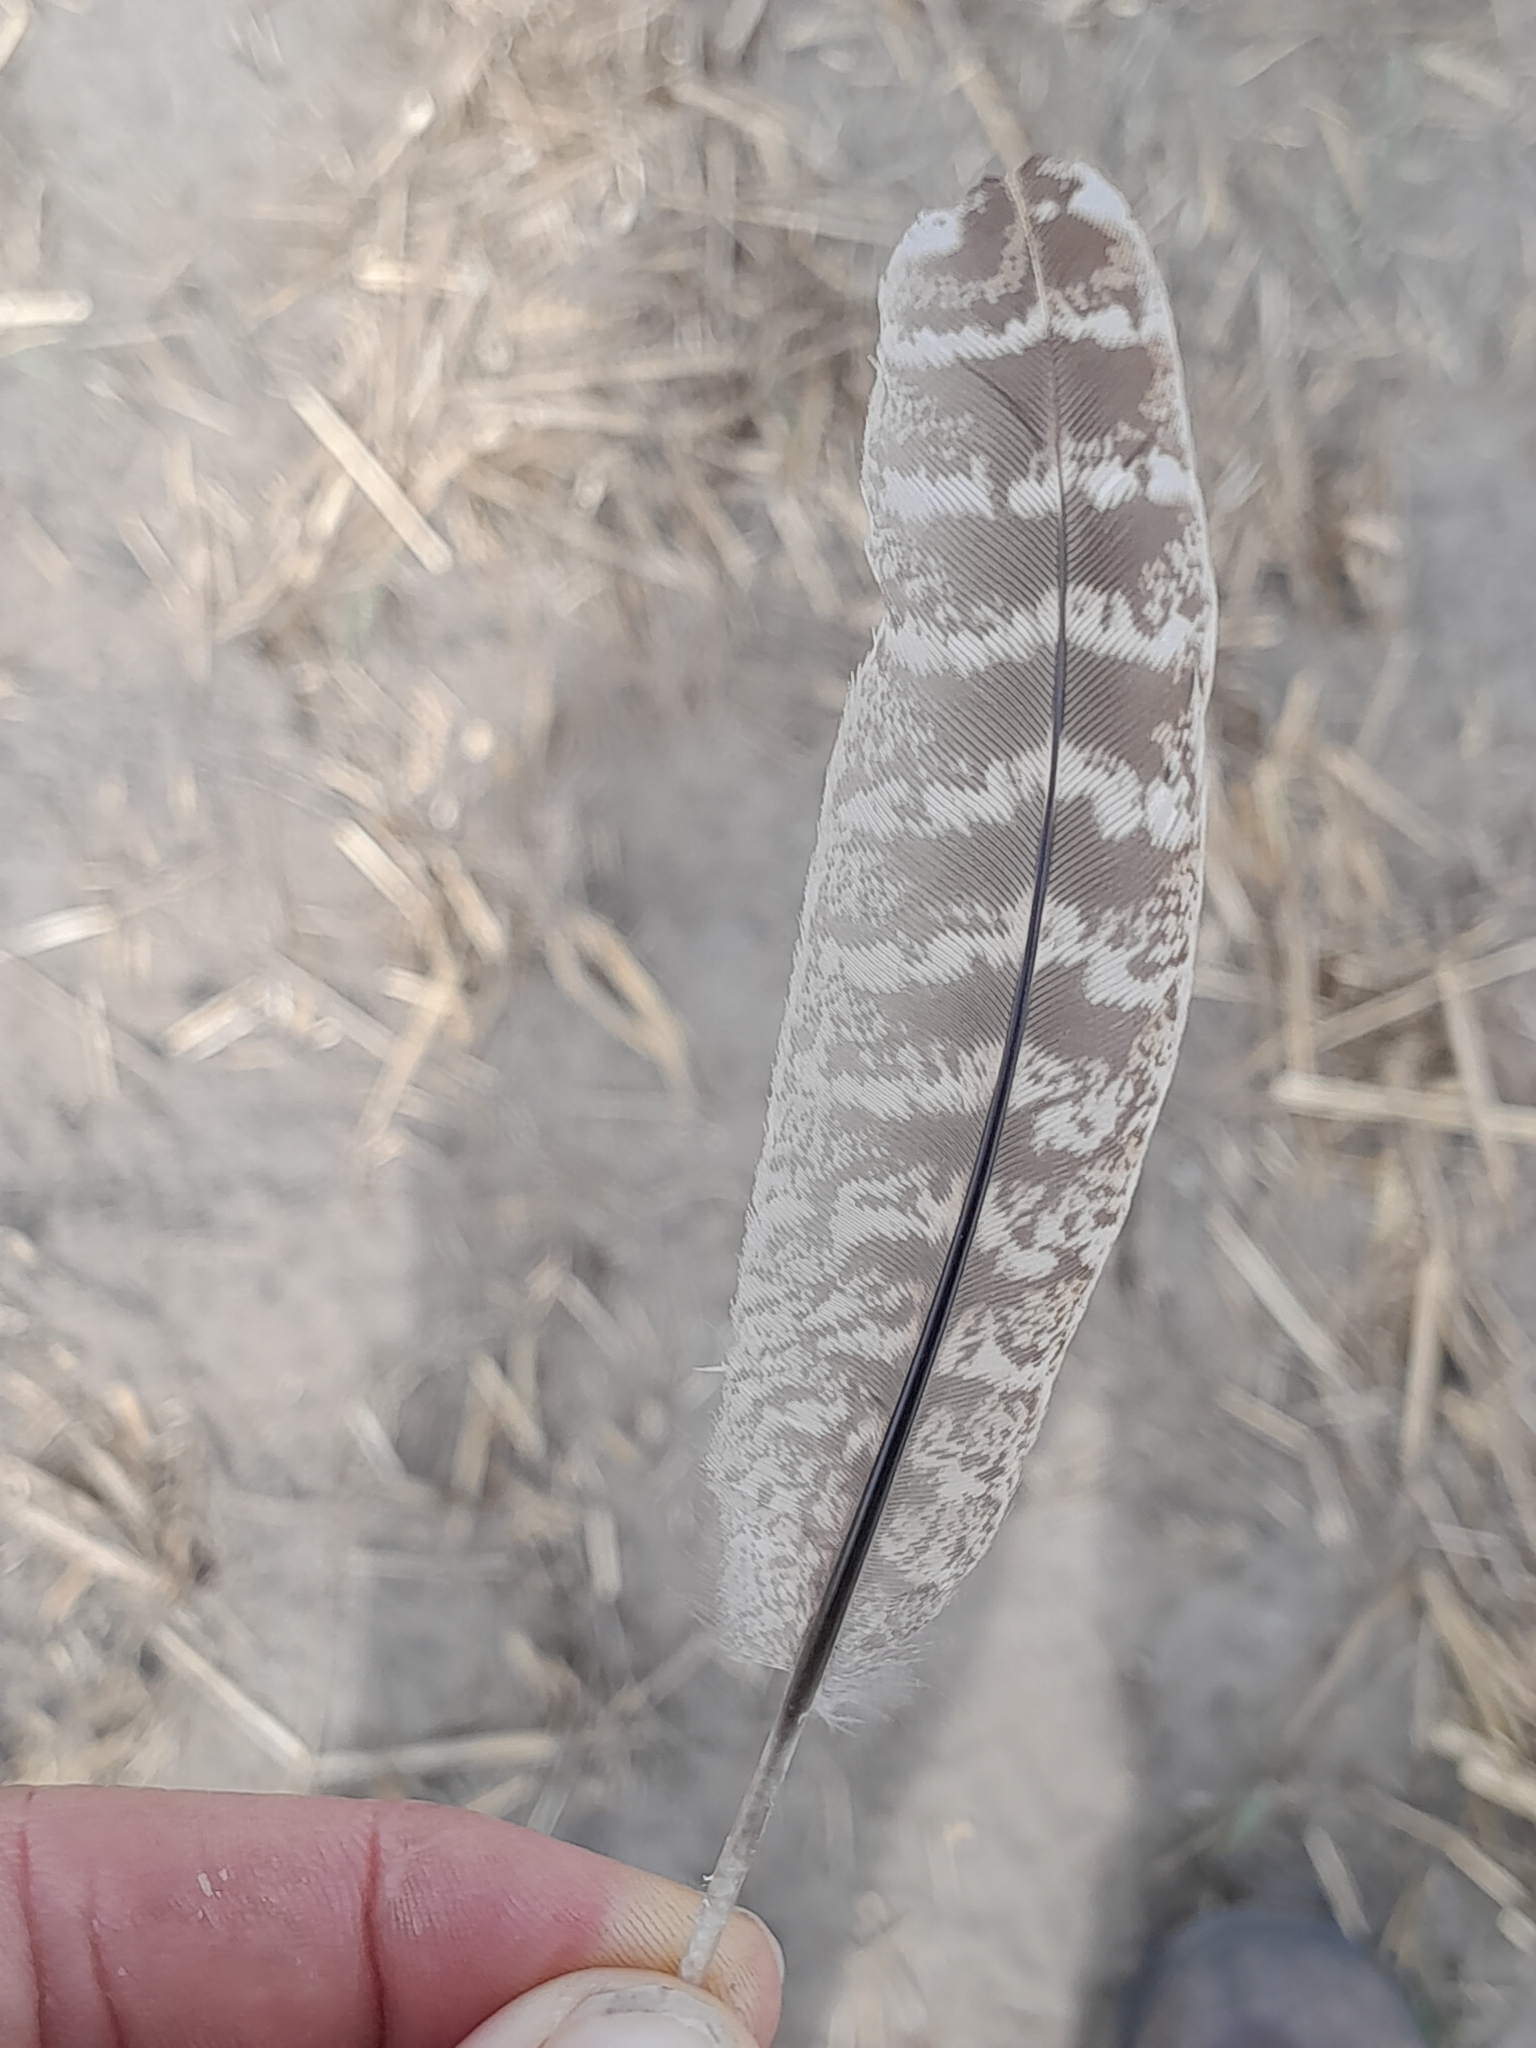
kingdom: Animalia
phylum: Chordata
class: Aves
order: Galliformes
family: Phasianidae
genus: Phasianus
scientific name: Phasianus colchicus
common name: Common pheasant
